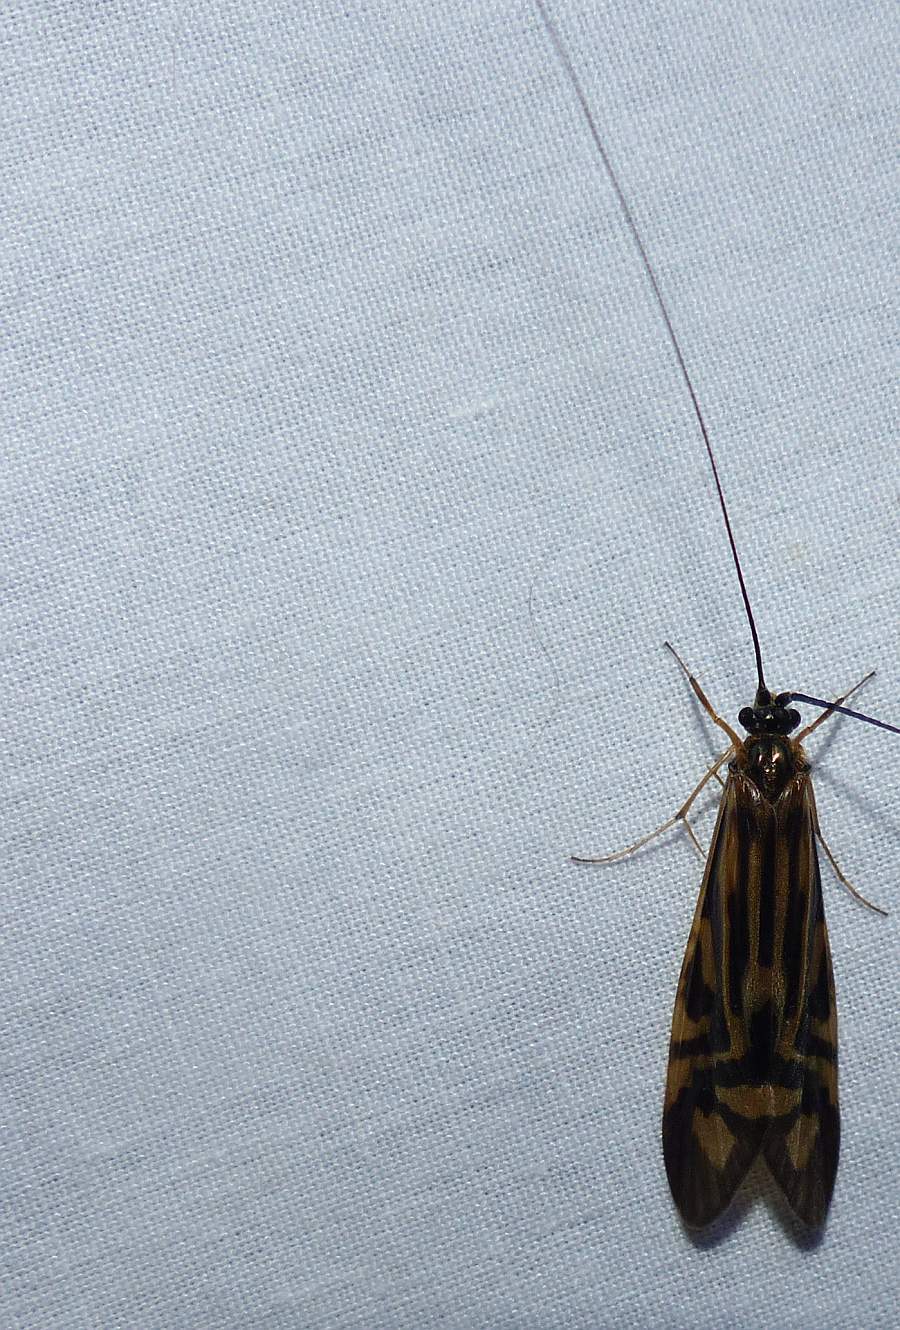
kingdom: Animalia
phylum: Arthropoda
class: Insecta
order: Trichoptera
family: Hydropsychidae
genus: Macrostemum
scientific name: Macrostemum zebratum
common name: Zebra caddisfly
